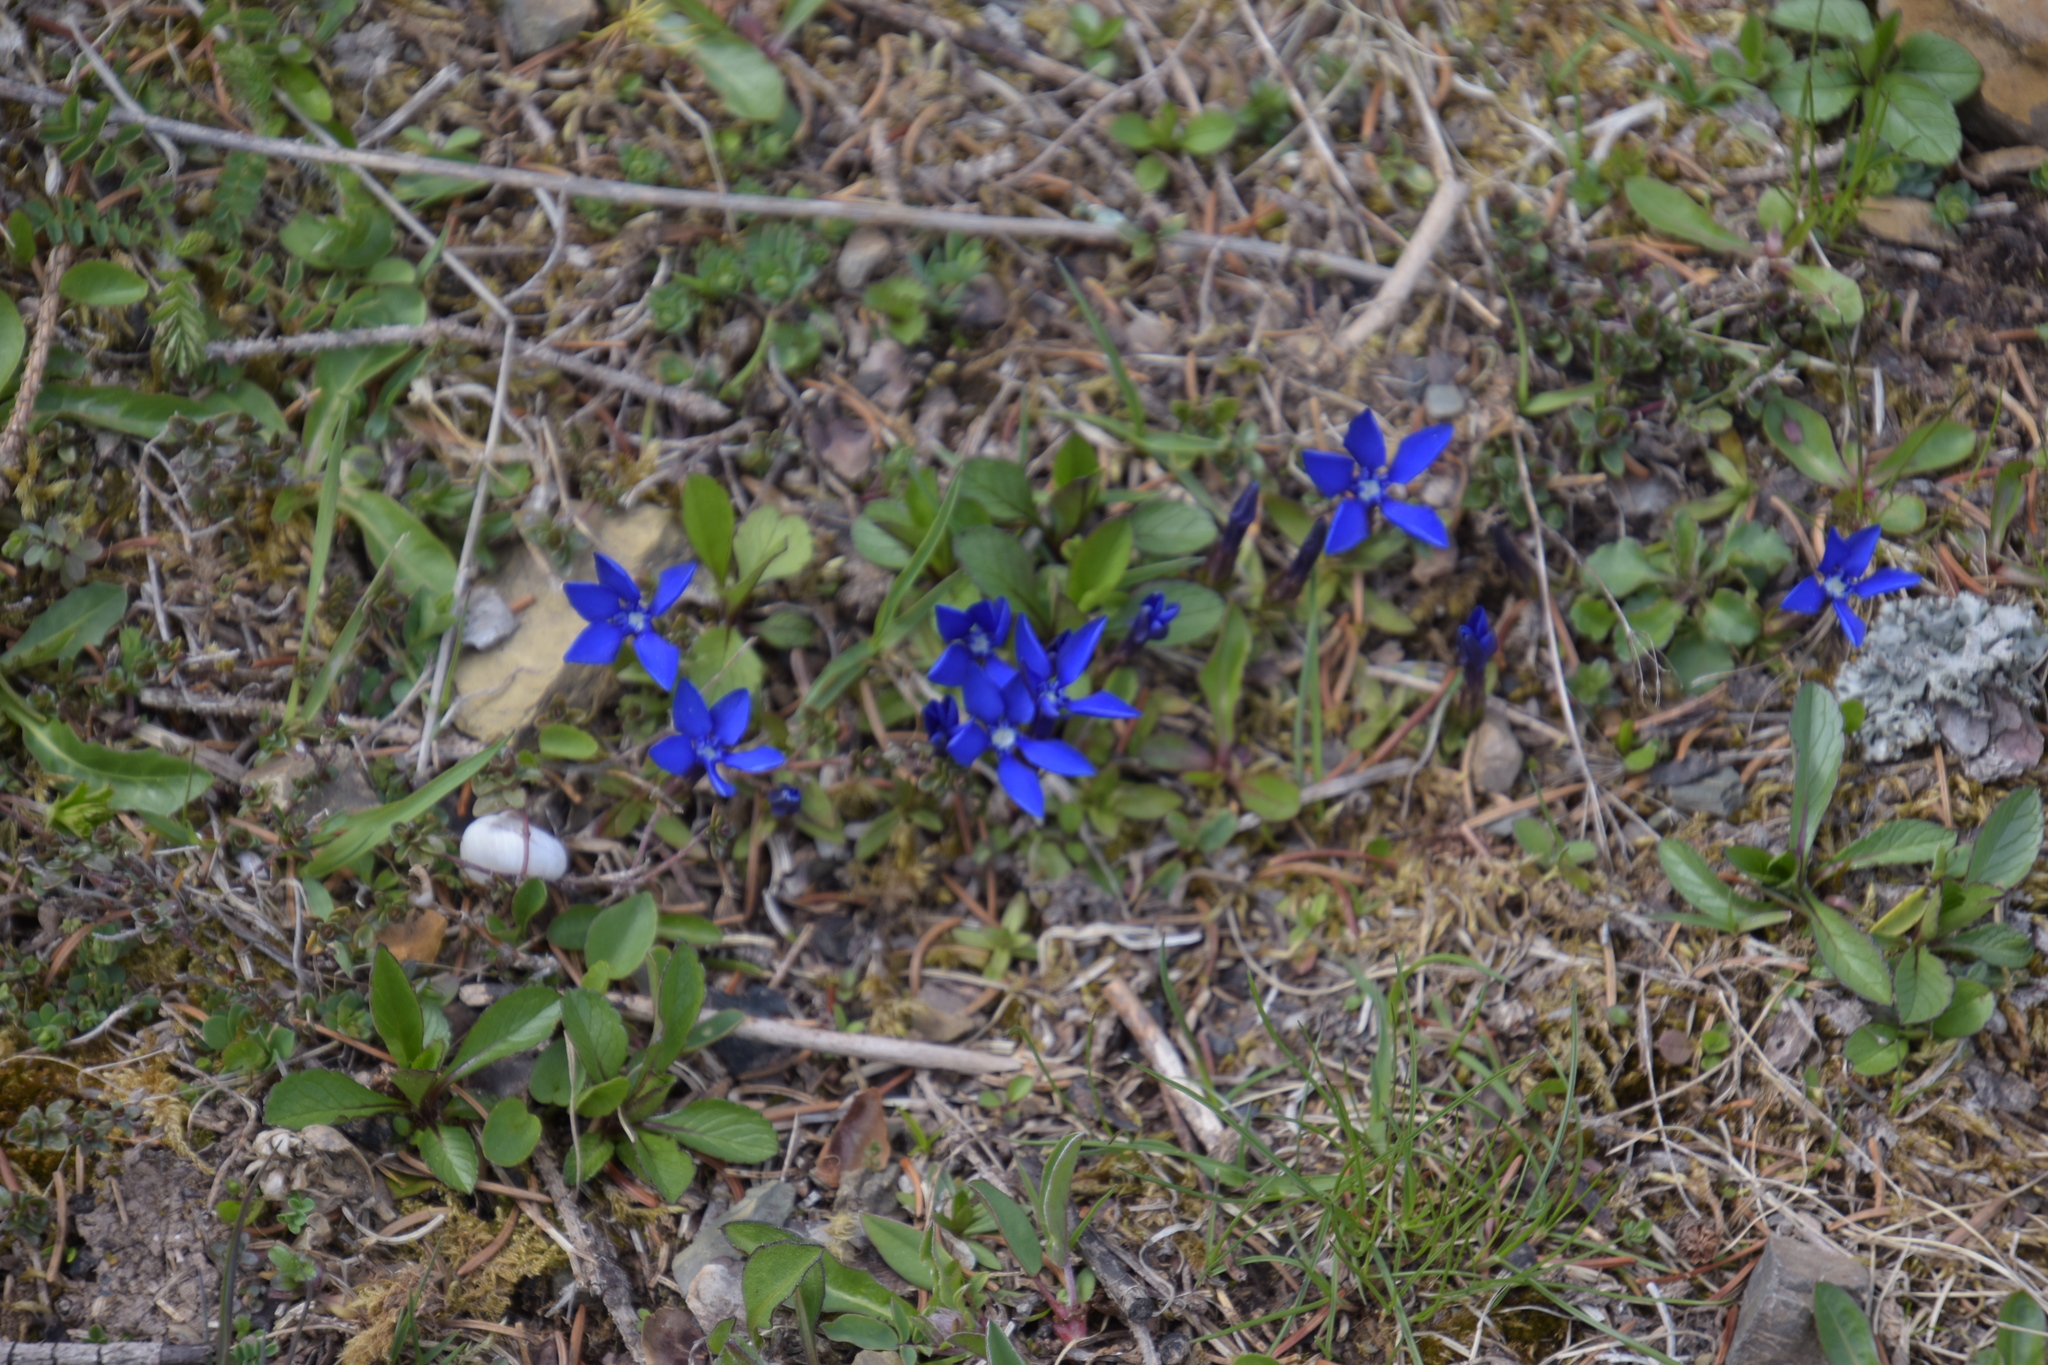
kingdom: Plantae
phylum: Tracheophyta
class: Magnoliopsida
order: Gentianales
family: Gentianaceae
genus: Gentiana
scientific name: Gentiana verna
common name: Spring gentian
